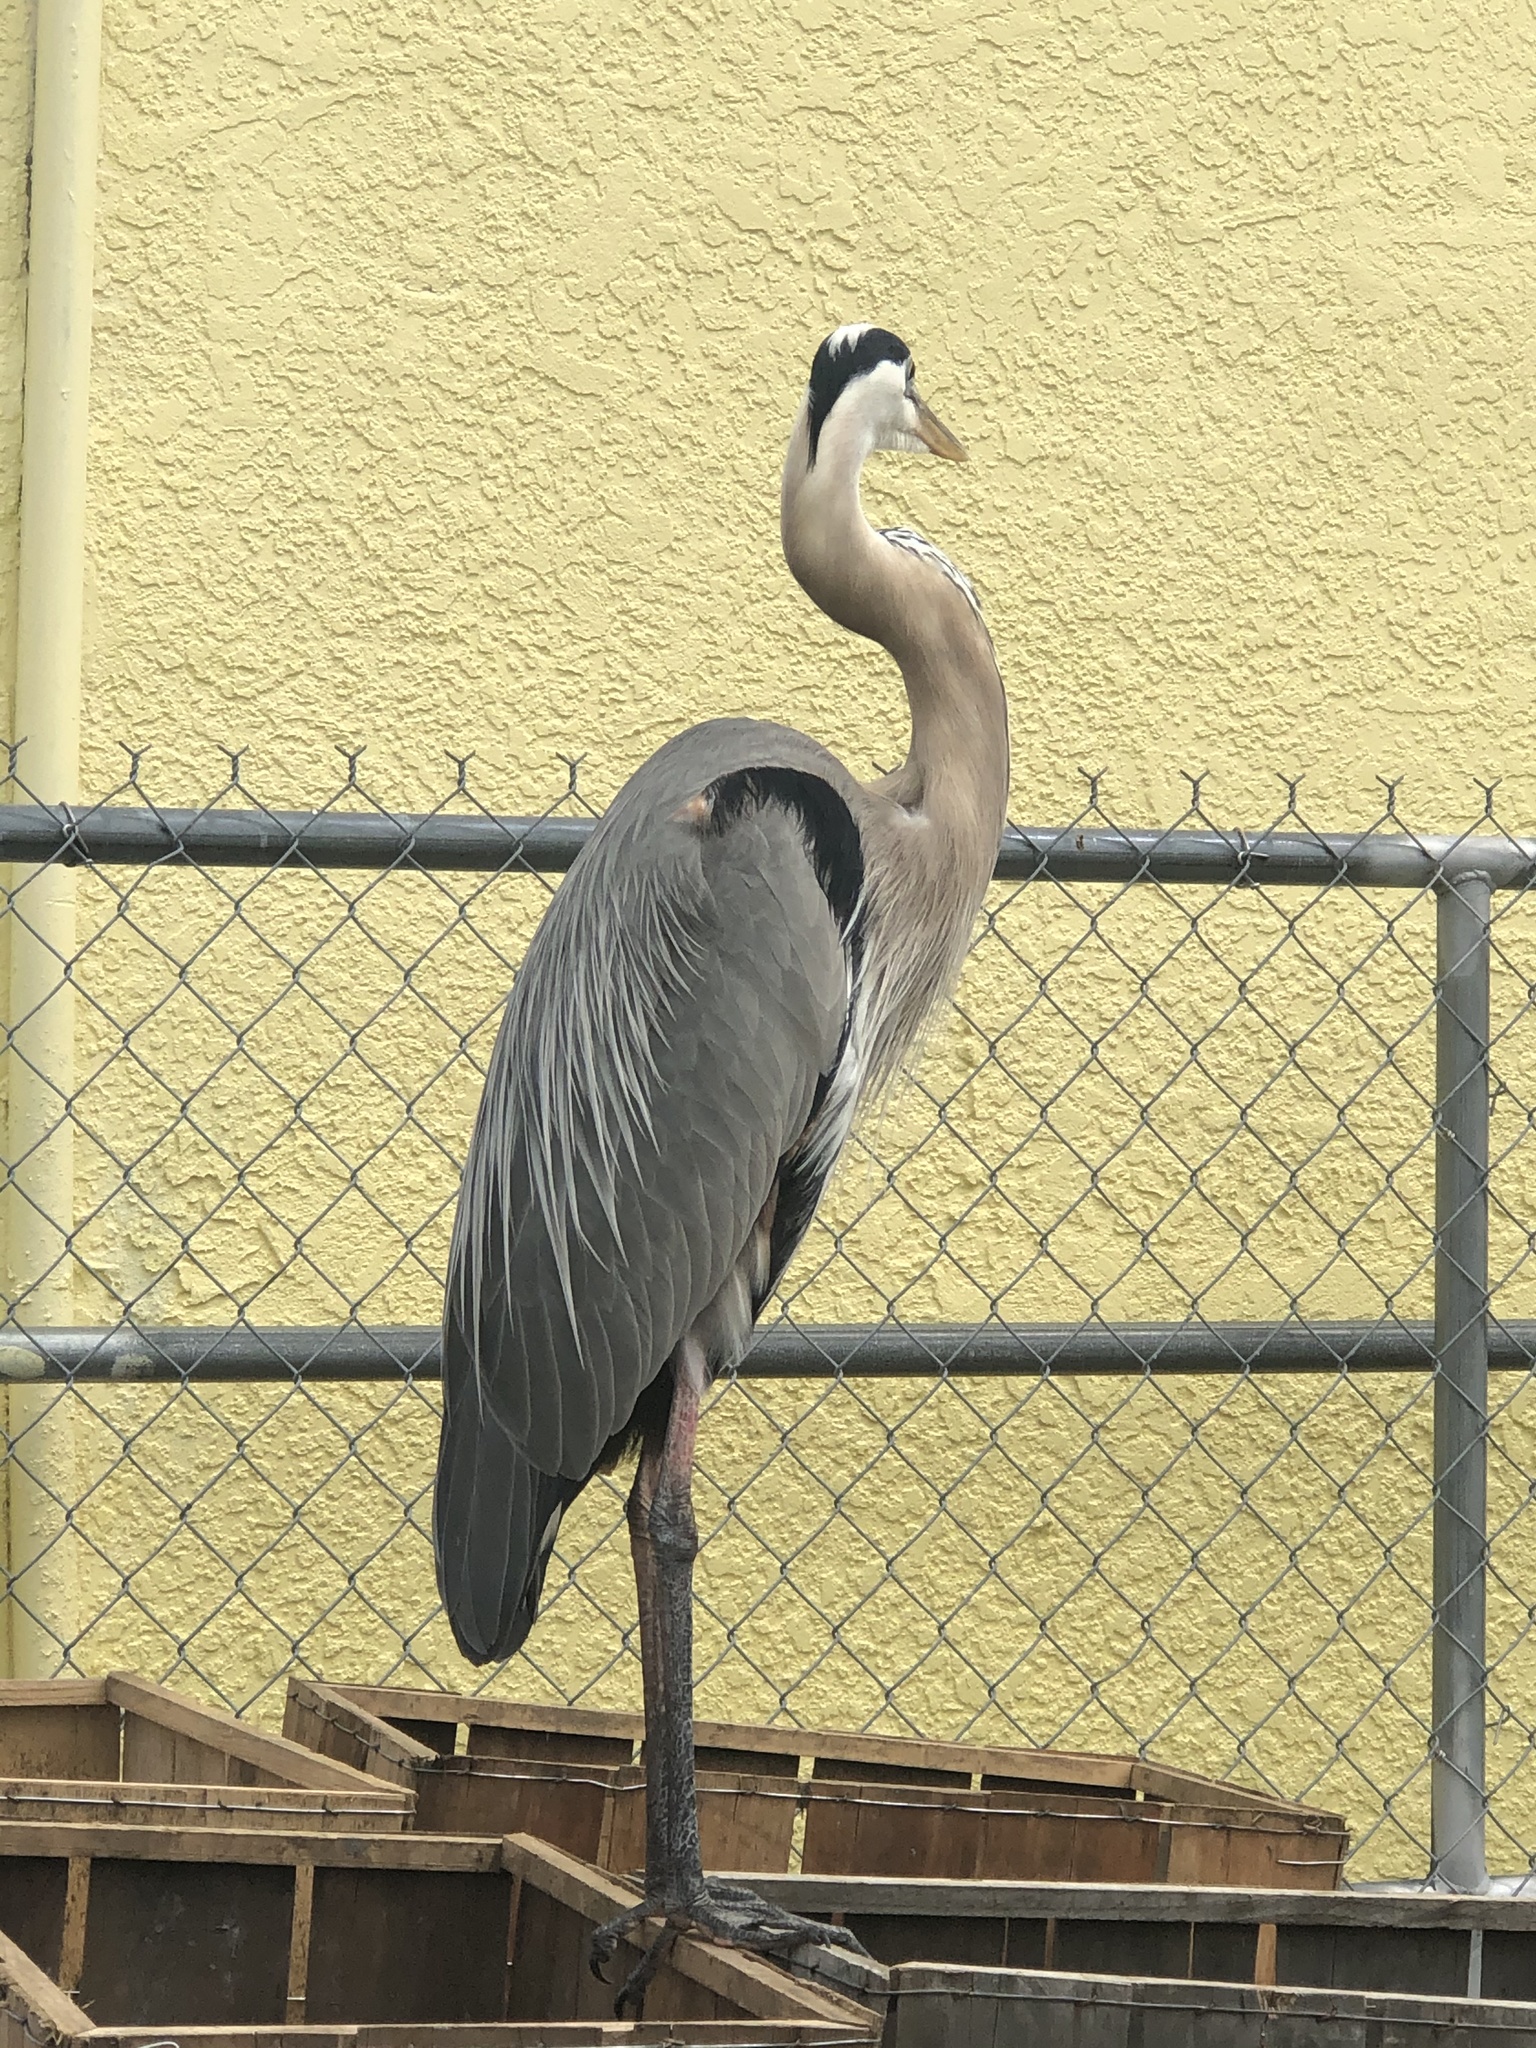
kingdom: Animalia
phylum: Chordata
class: Aves
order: Pelecaniformes
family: Ardeidae
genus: Ardea
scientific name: Ardea herodias
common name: Great blue heron
